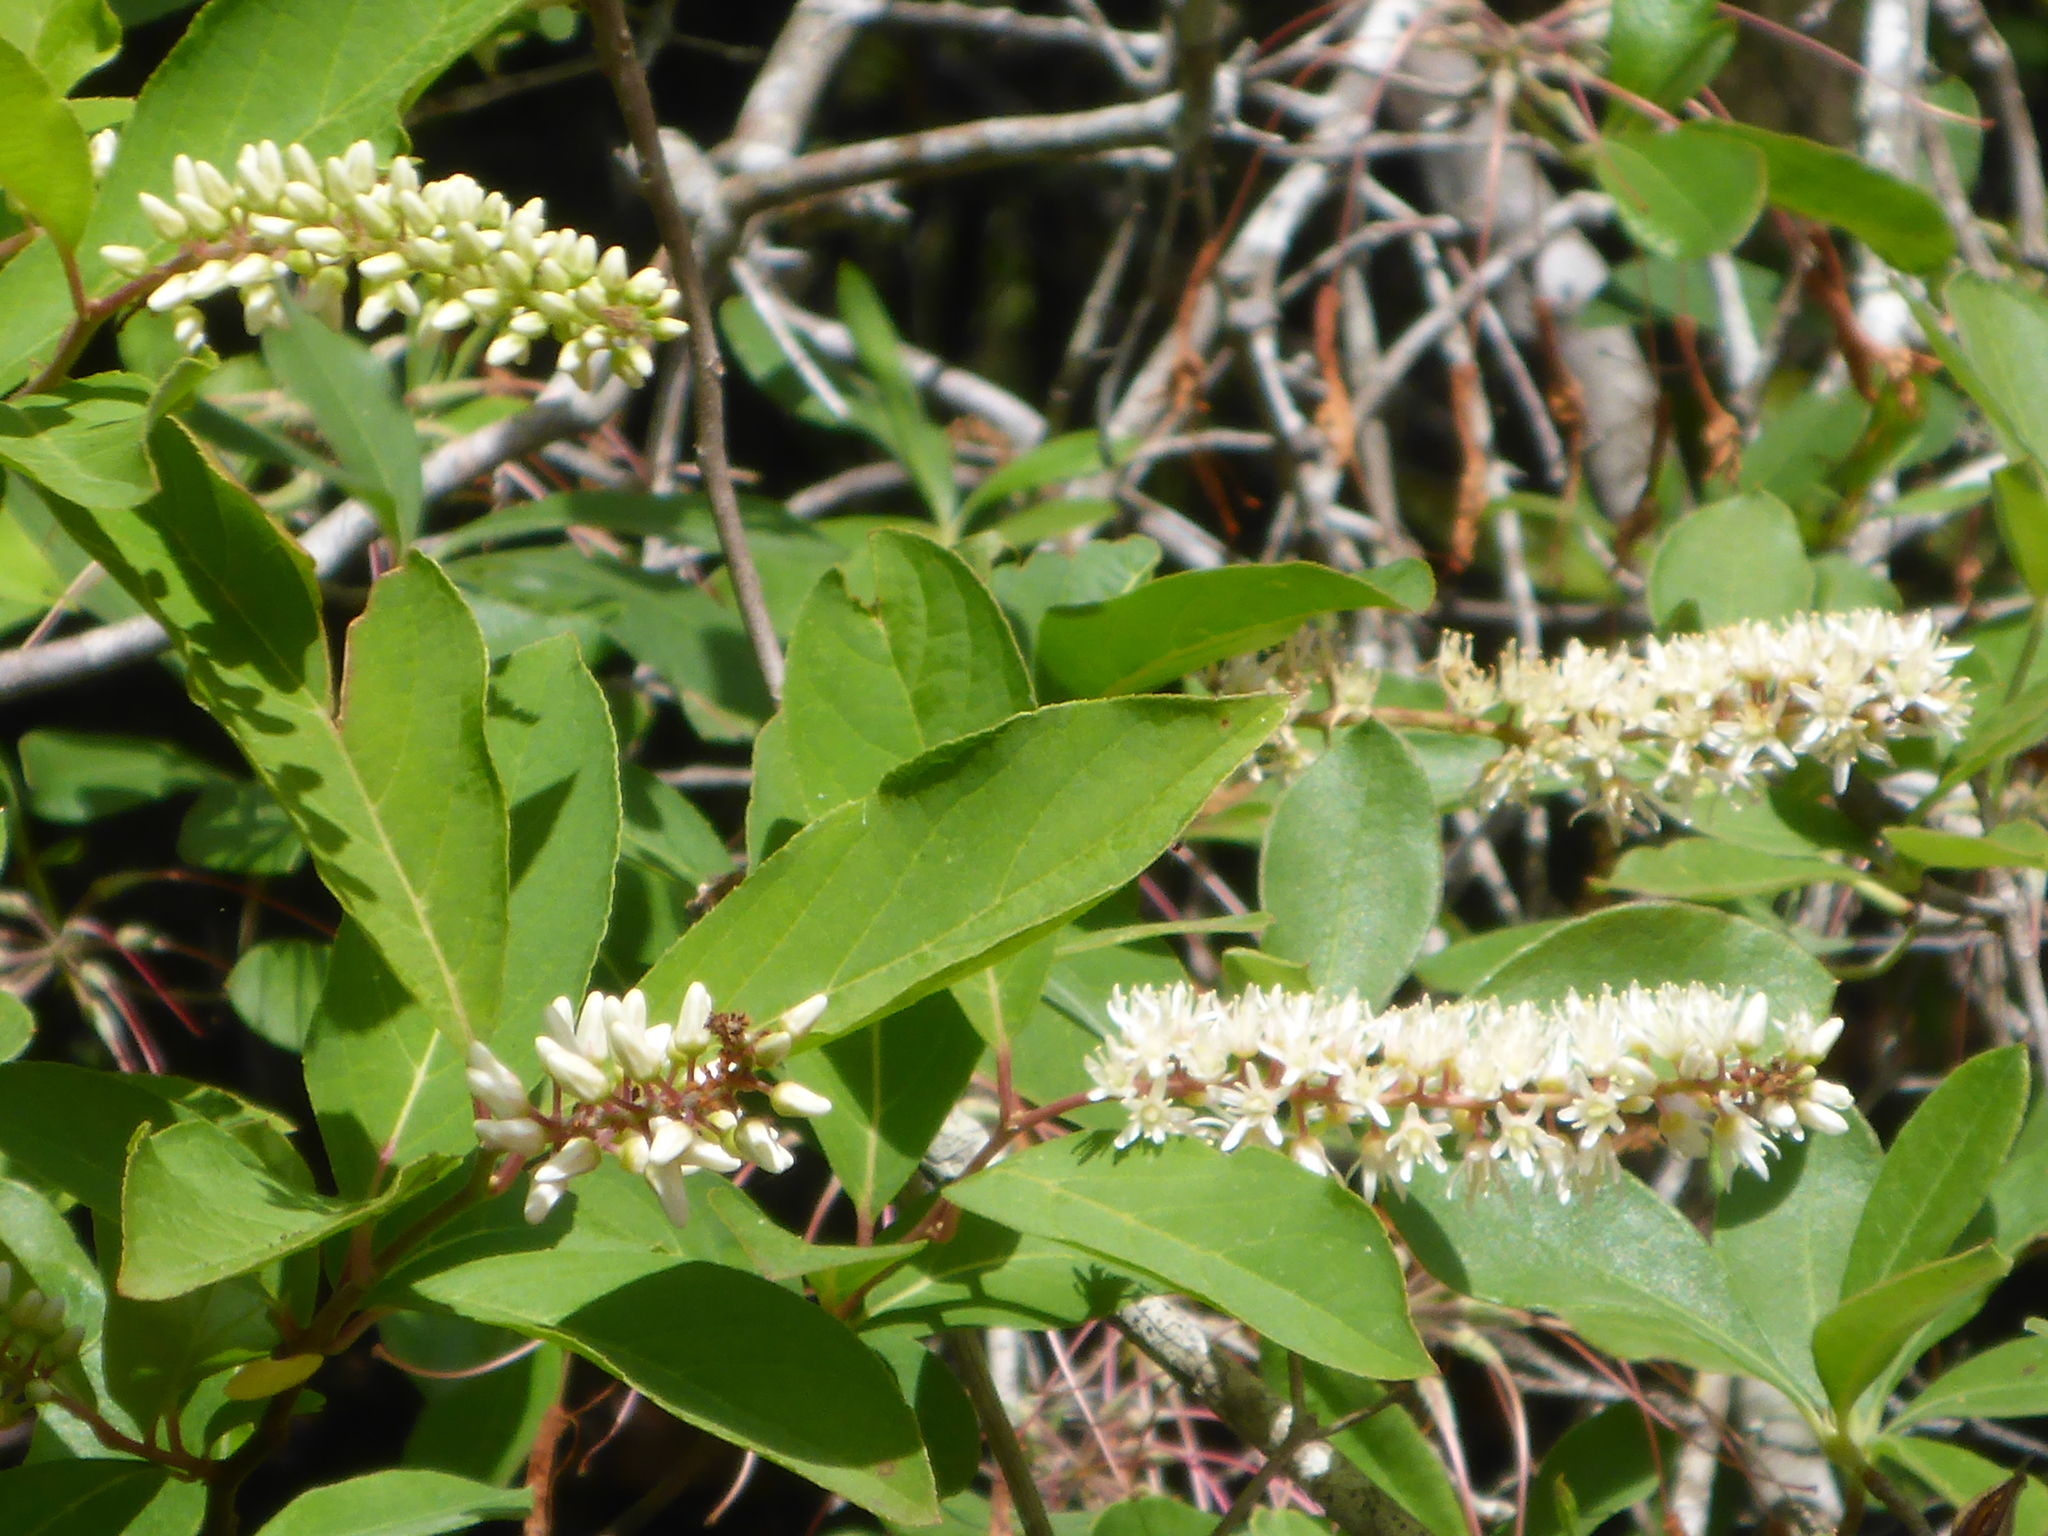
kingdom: Plantae
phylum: Tracheophyta
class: Magnoliopsida
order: Saxifragales
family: Iteaceae
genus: Itea
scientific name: Itea virginica
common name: Sweetspire
